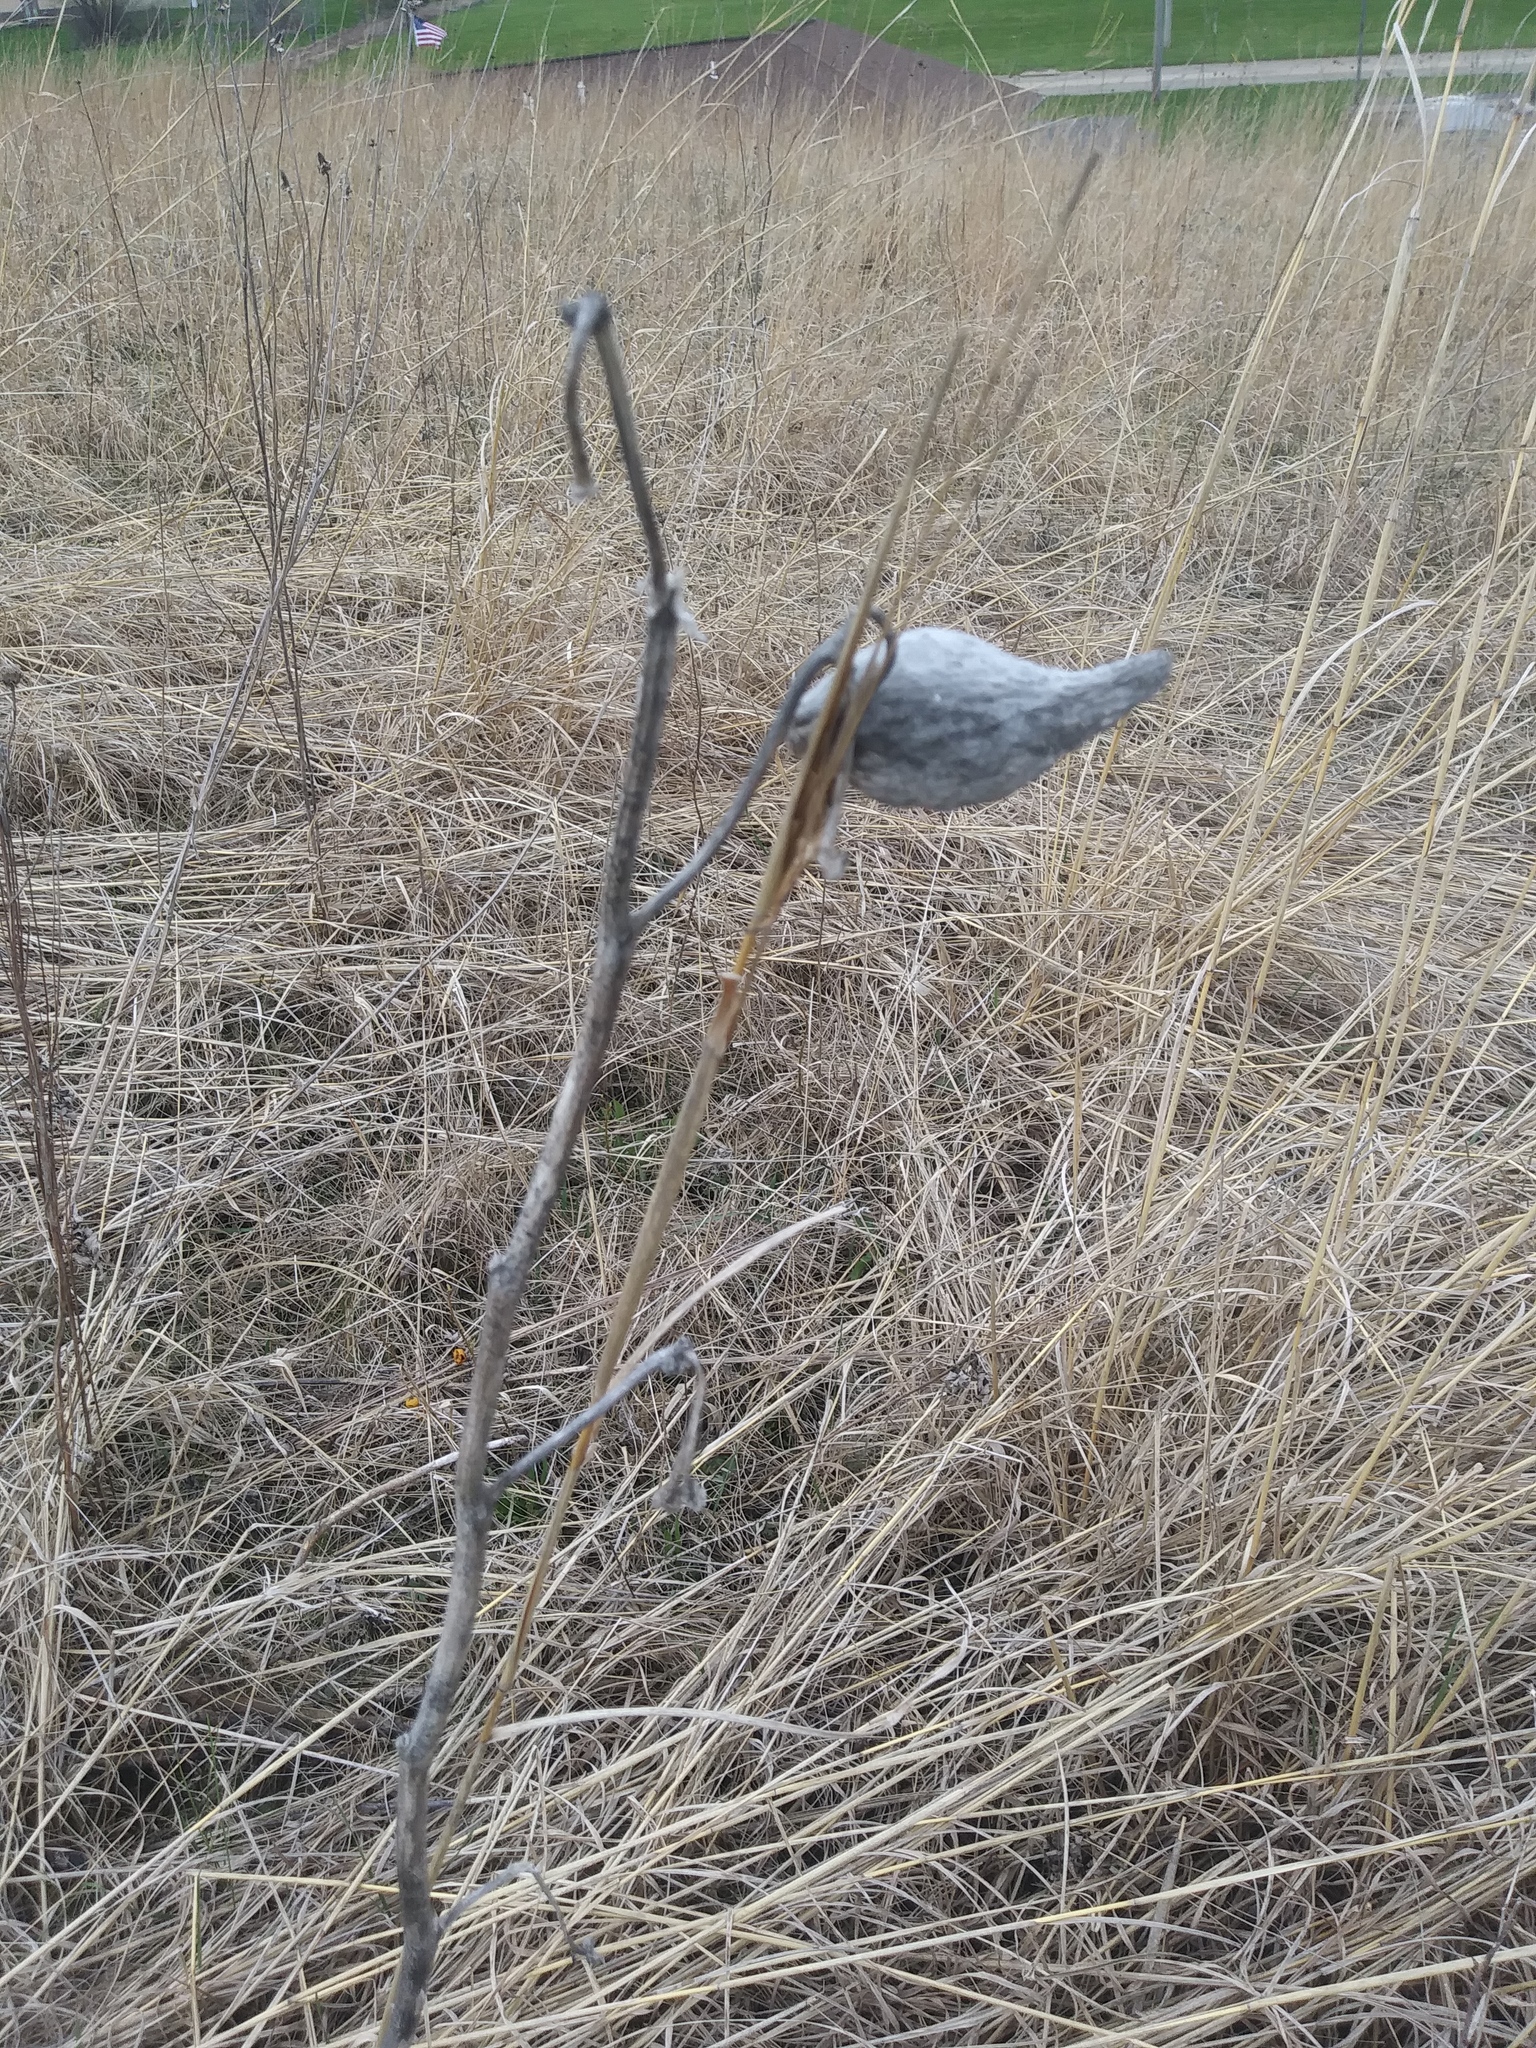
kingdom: Plantae
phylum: Tracheophyta
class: Magnoliopsida
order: Gentianales
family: Apocynaceae
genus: Asclepias
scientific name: Asclepias syriaca
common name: Common milkweed
